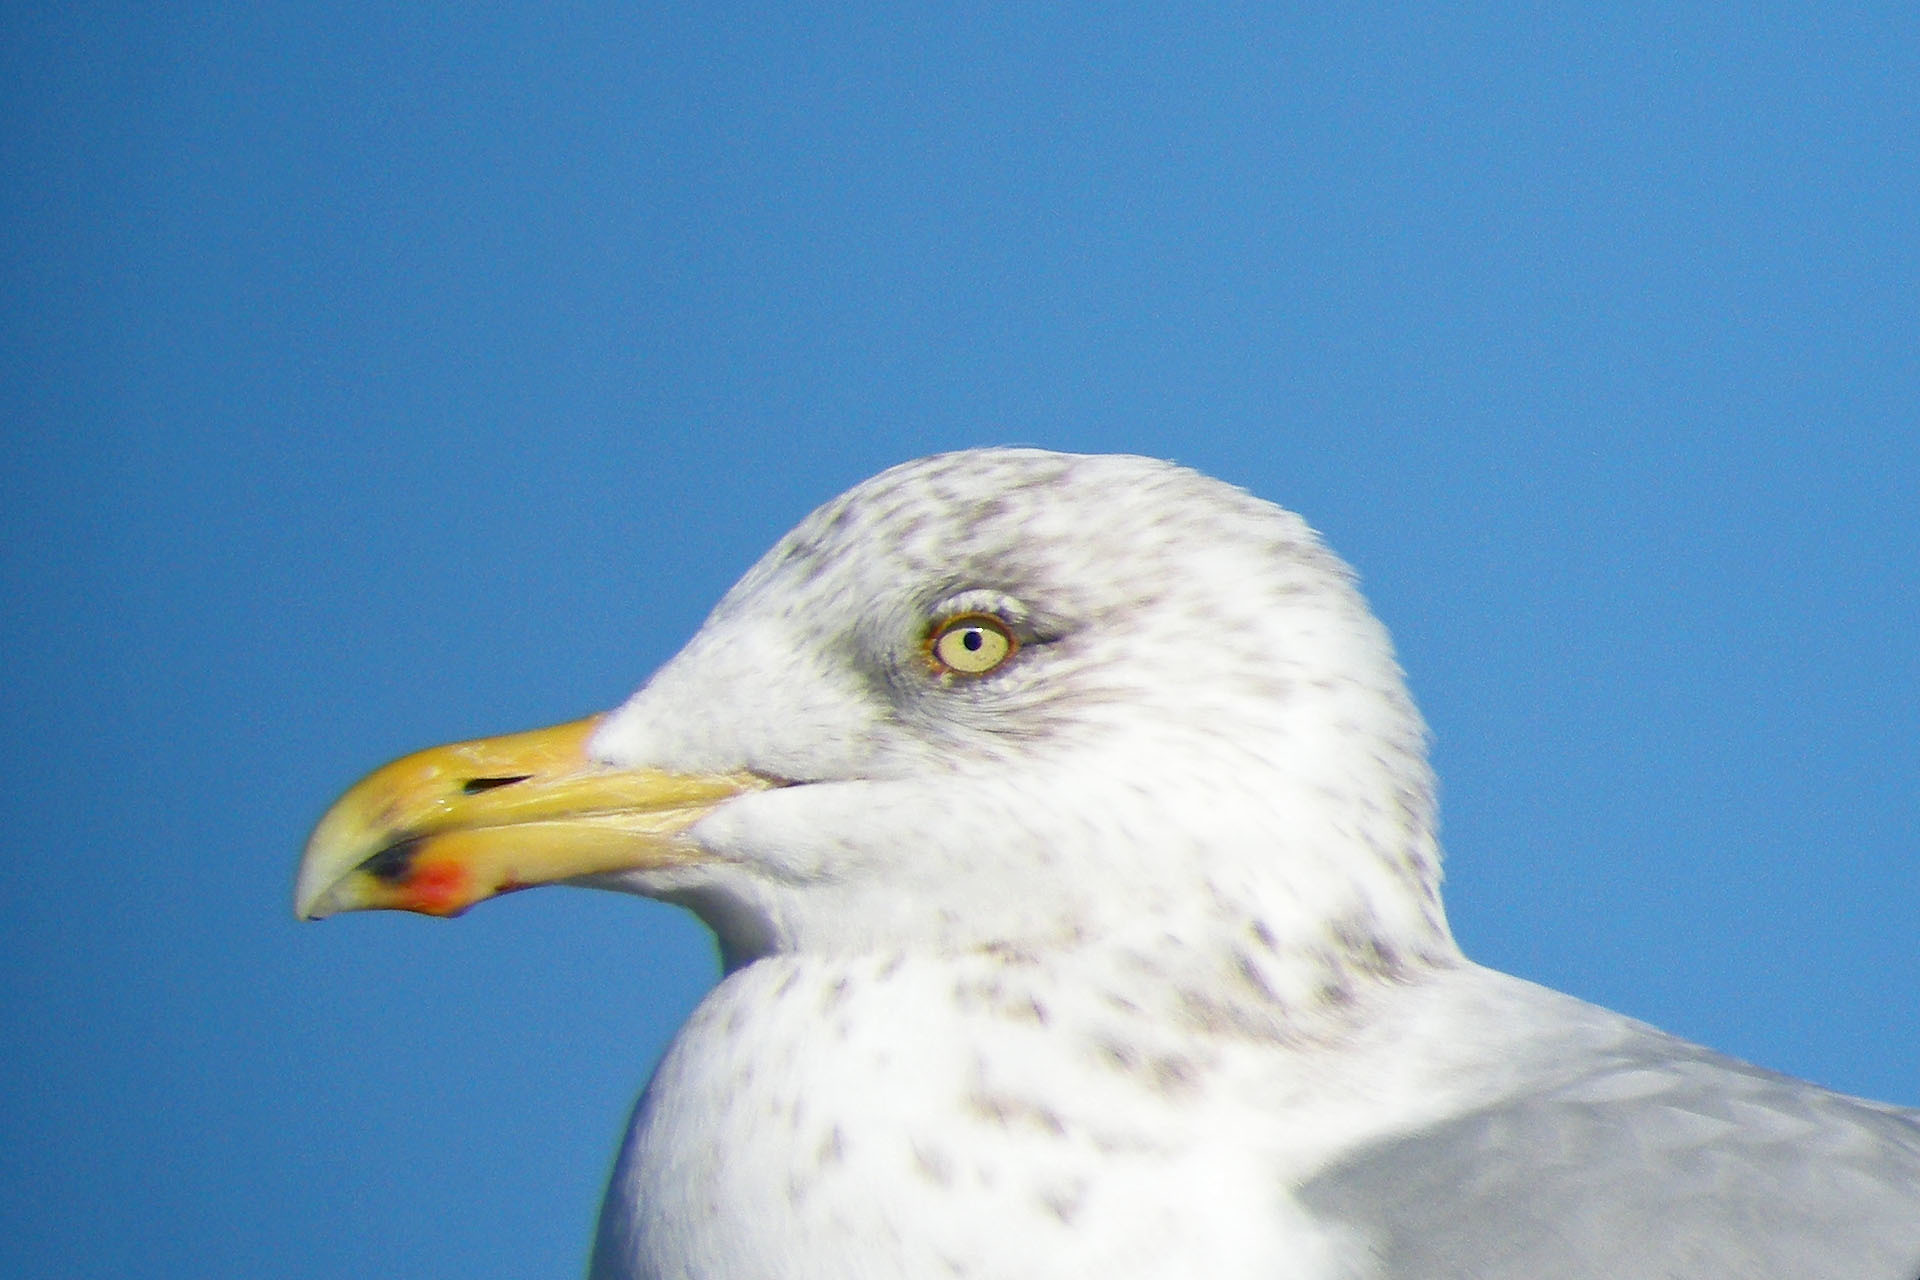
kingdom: Animalia
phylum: Chordata
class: Aves
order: Charadriiformes
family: Laridae
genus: Larus
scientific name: Larus argentatus
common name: Herring gull
